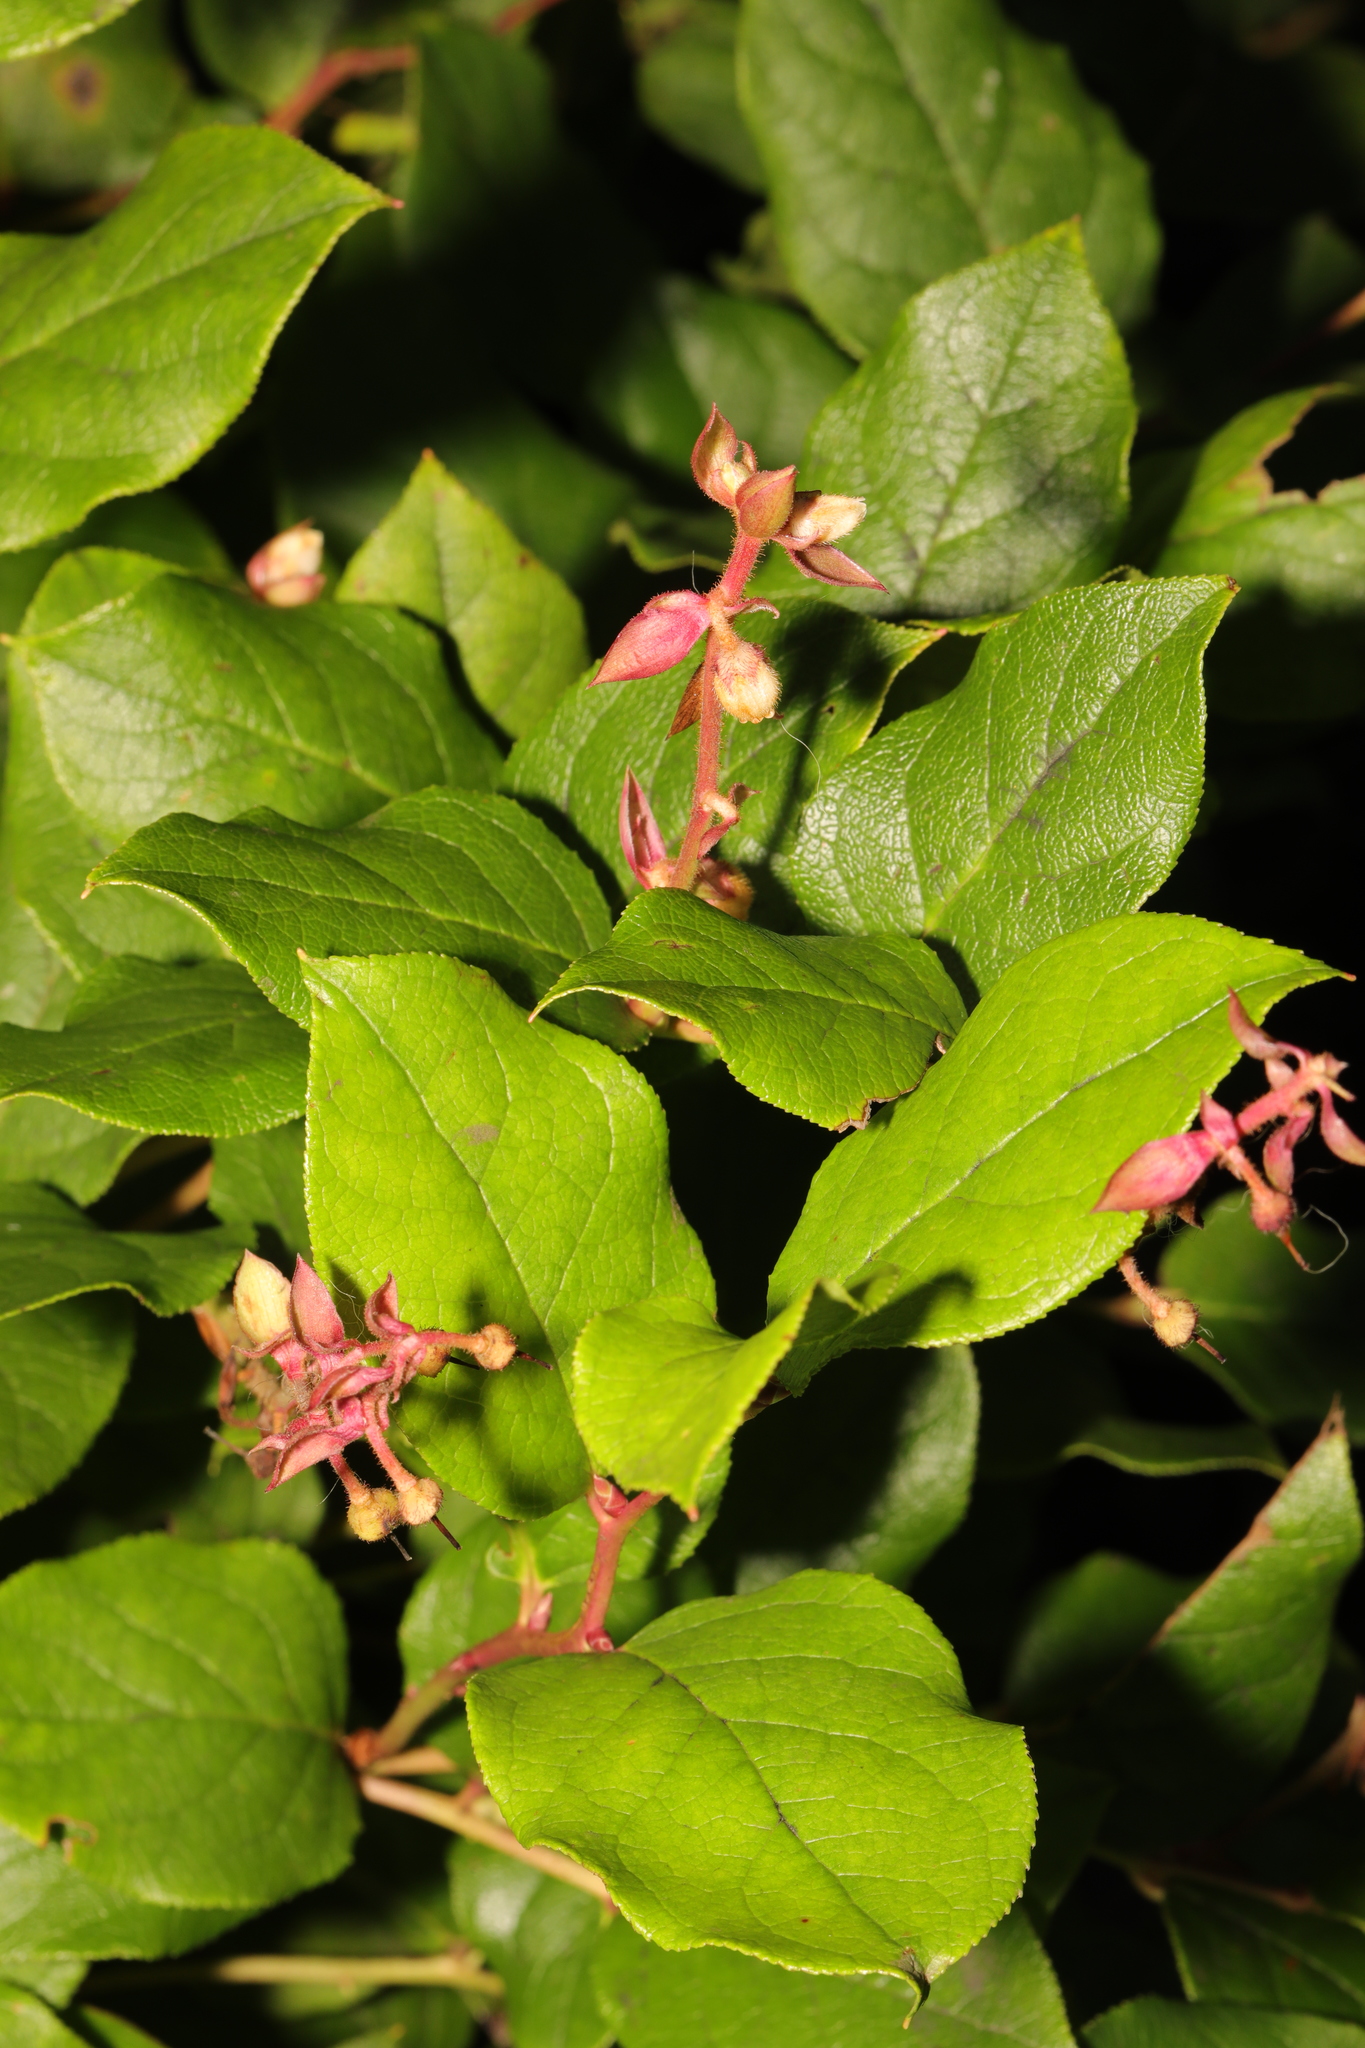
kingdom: Plantae
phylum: Tracheophyta
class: Magnoliopsida
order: Ericales
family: Ericaceae
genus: Gaultheria
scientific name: Gaultheria shallon
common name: Shallon
